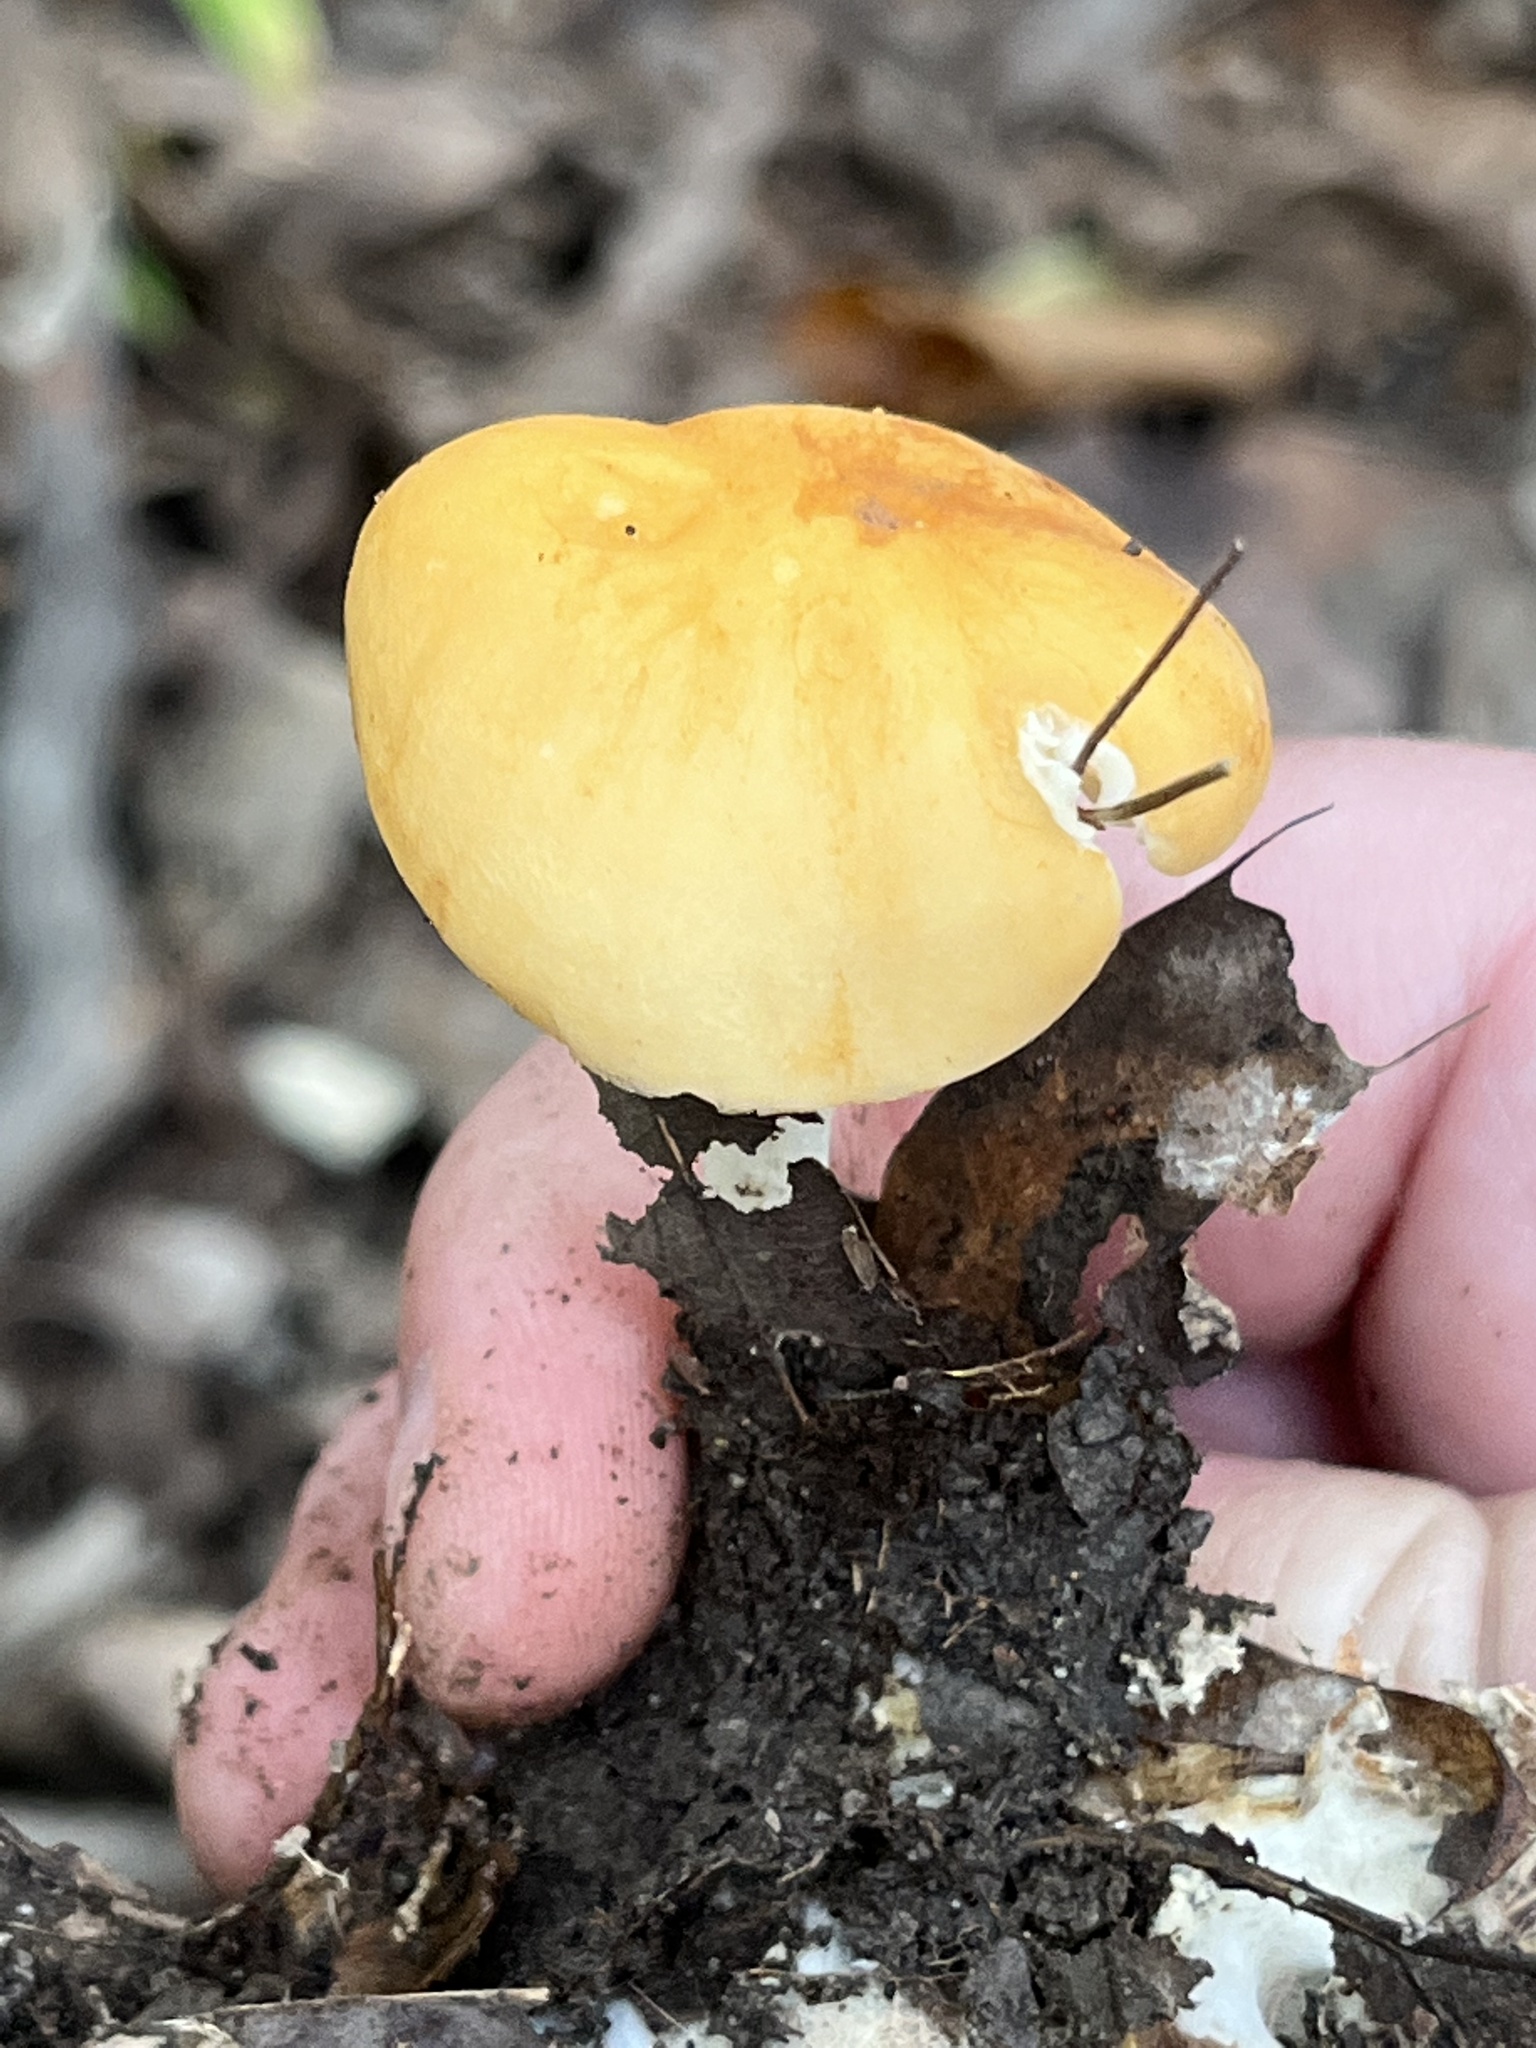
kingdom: Fungi
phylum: Basidiomycota
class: Agaricomycetes
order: Agaricales
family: Marasmiaceae
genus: Marasmius
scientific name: Marasmius strictipes
